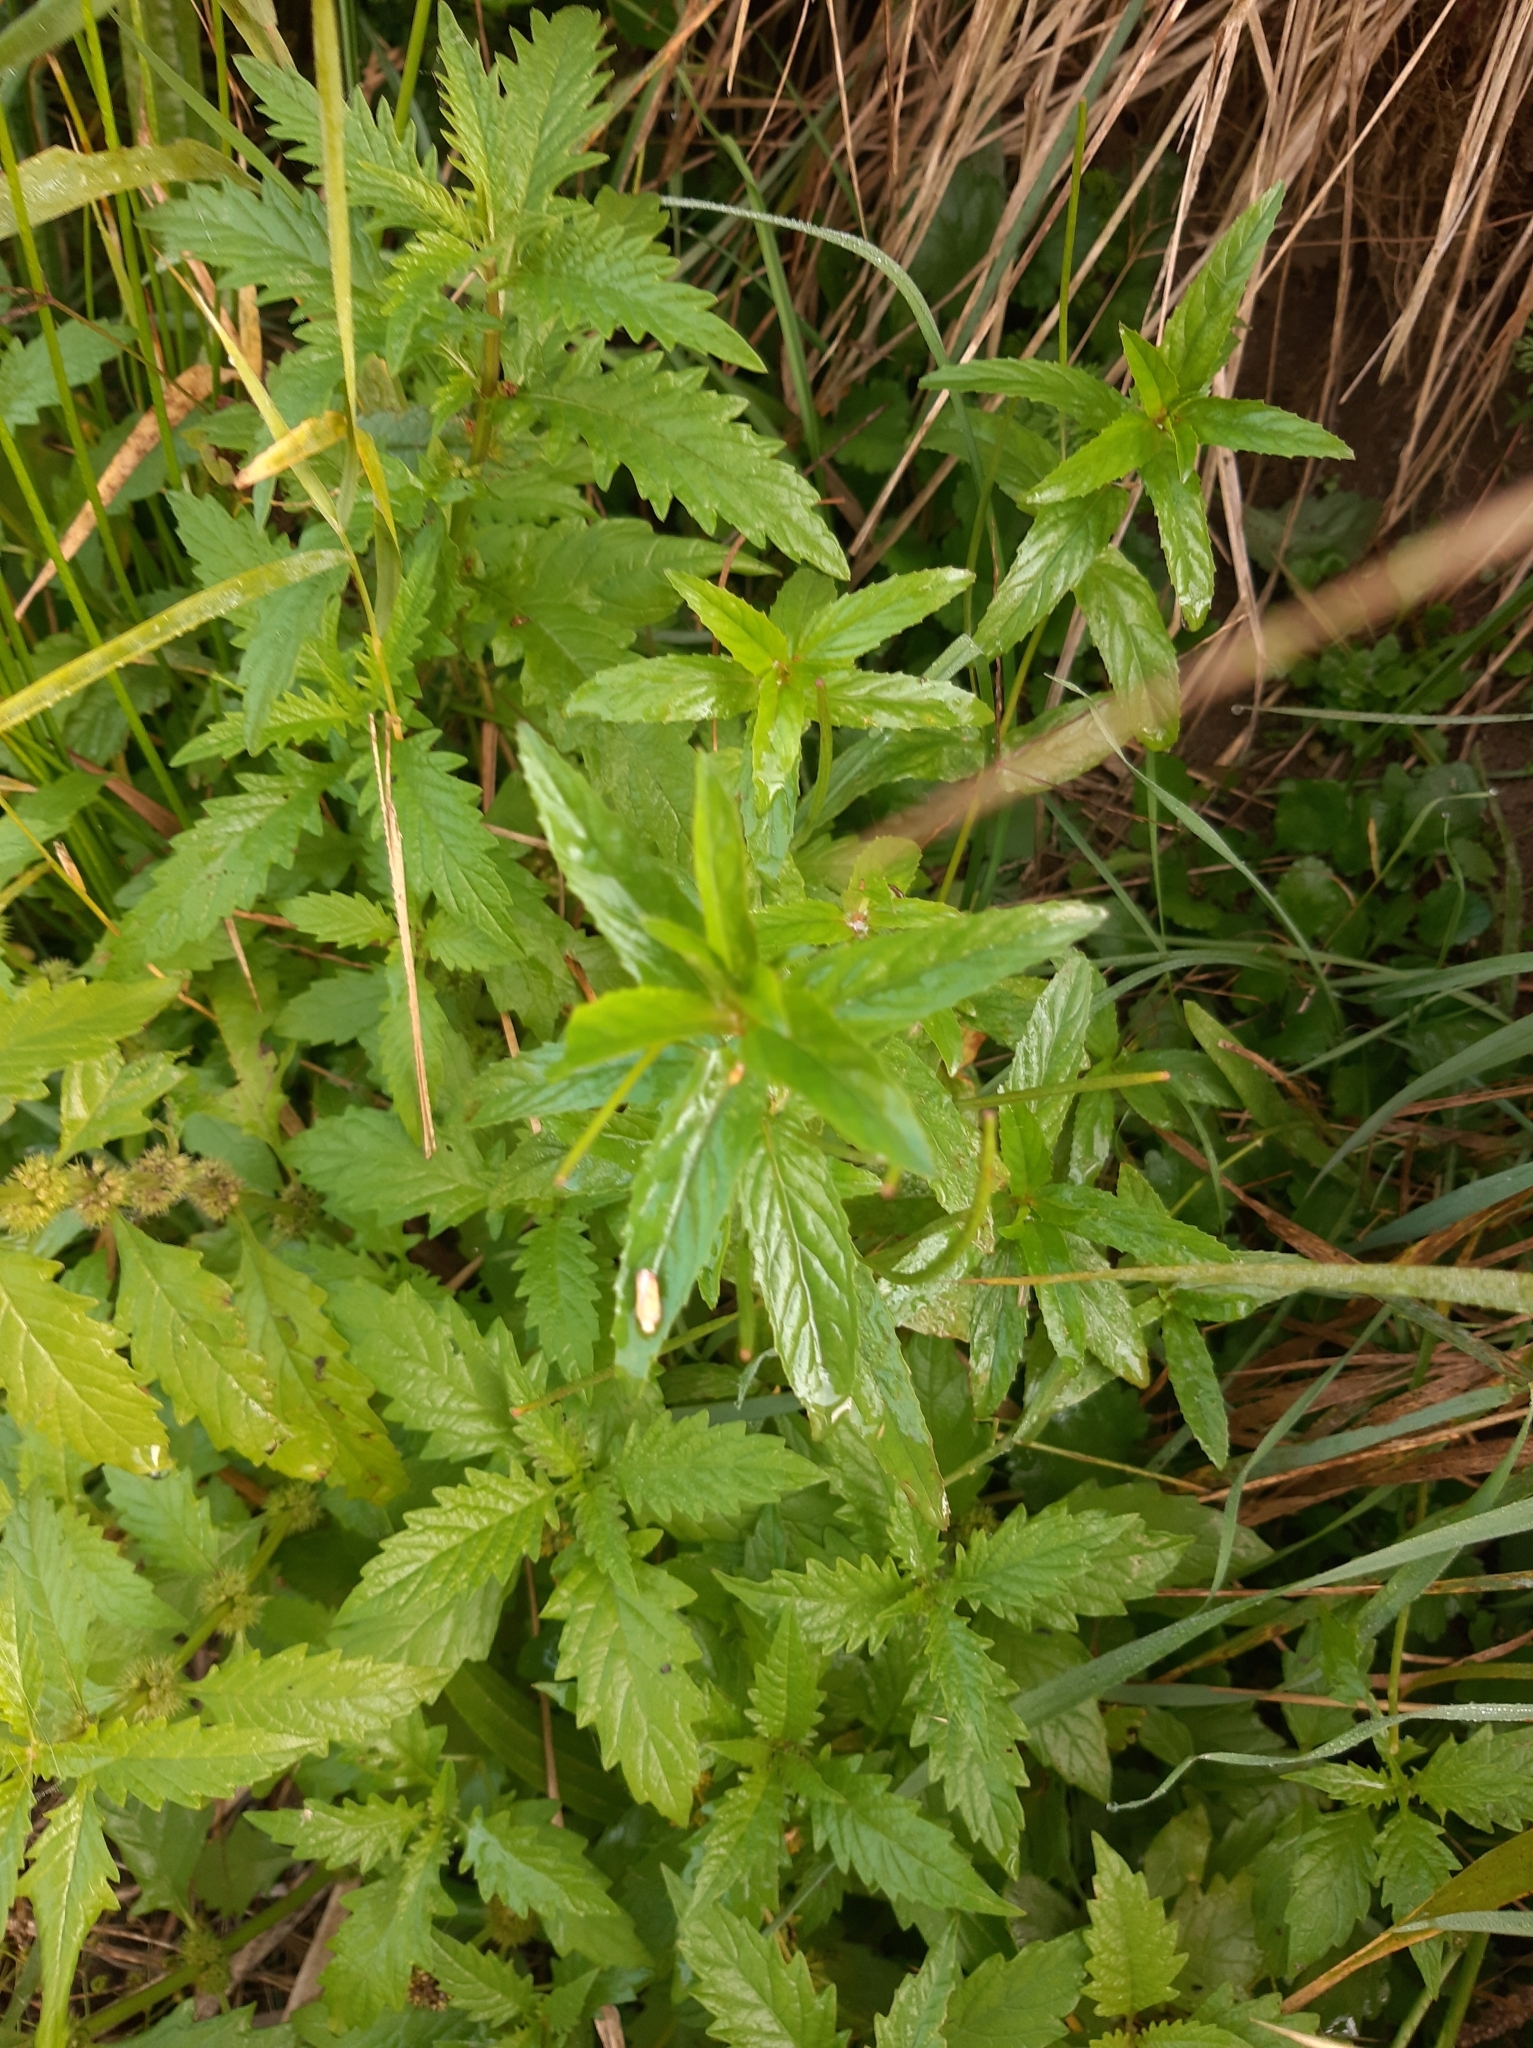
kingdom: Plantae
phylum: Tracheophyta
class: Magnoliopsida
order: Lamiales
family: Lamiaceae
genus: Lycopus
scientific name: Lycopus europaeus
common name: European bugleweed
